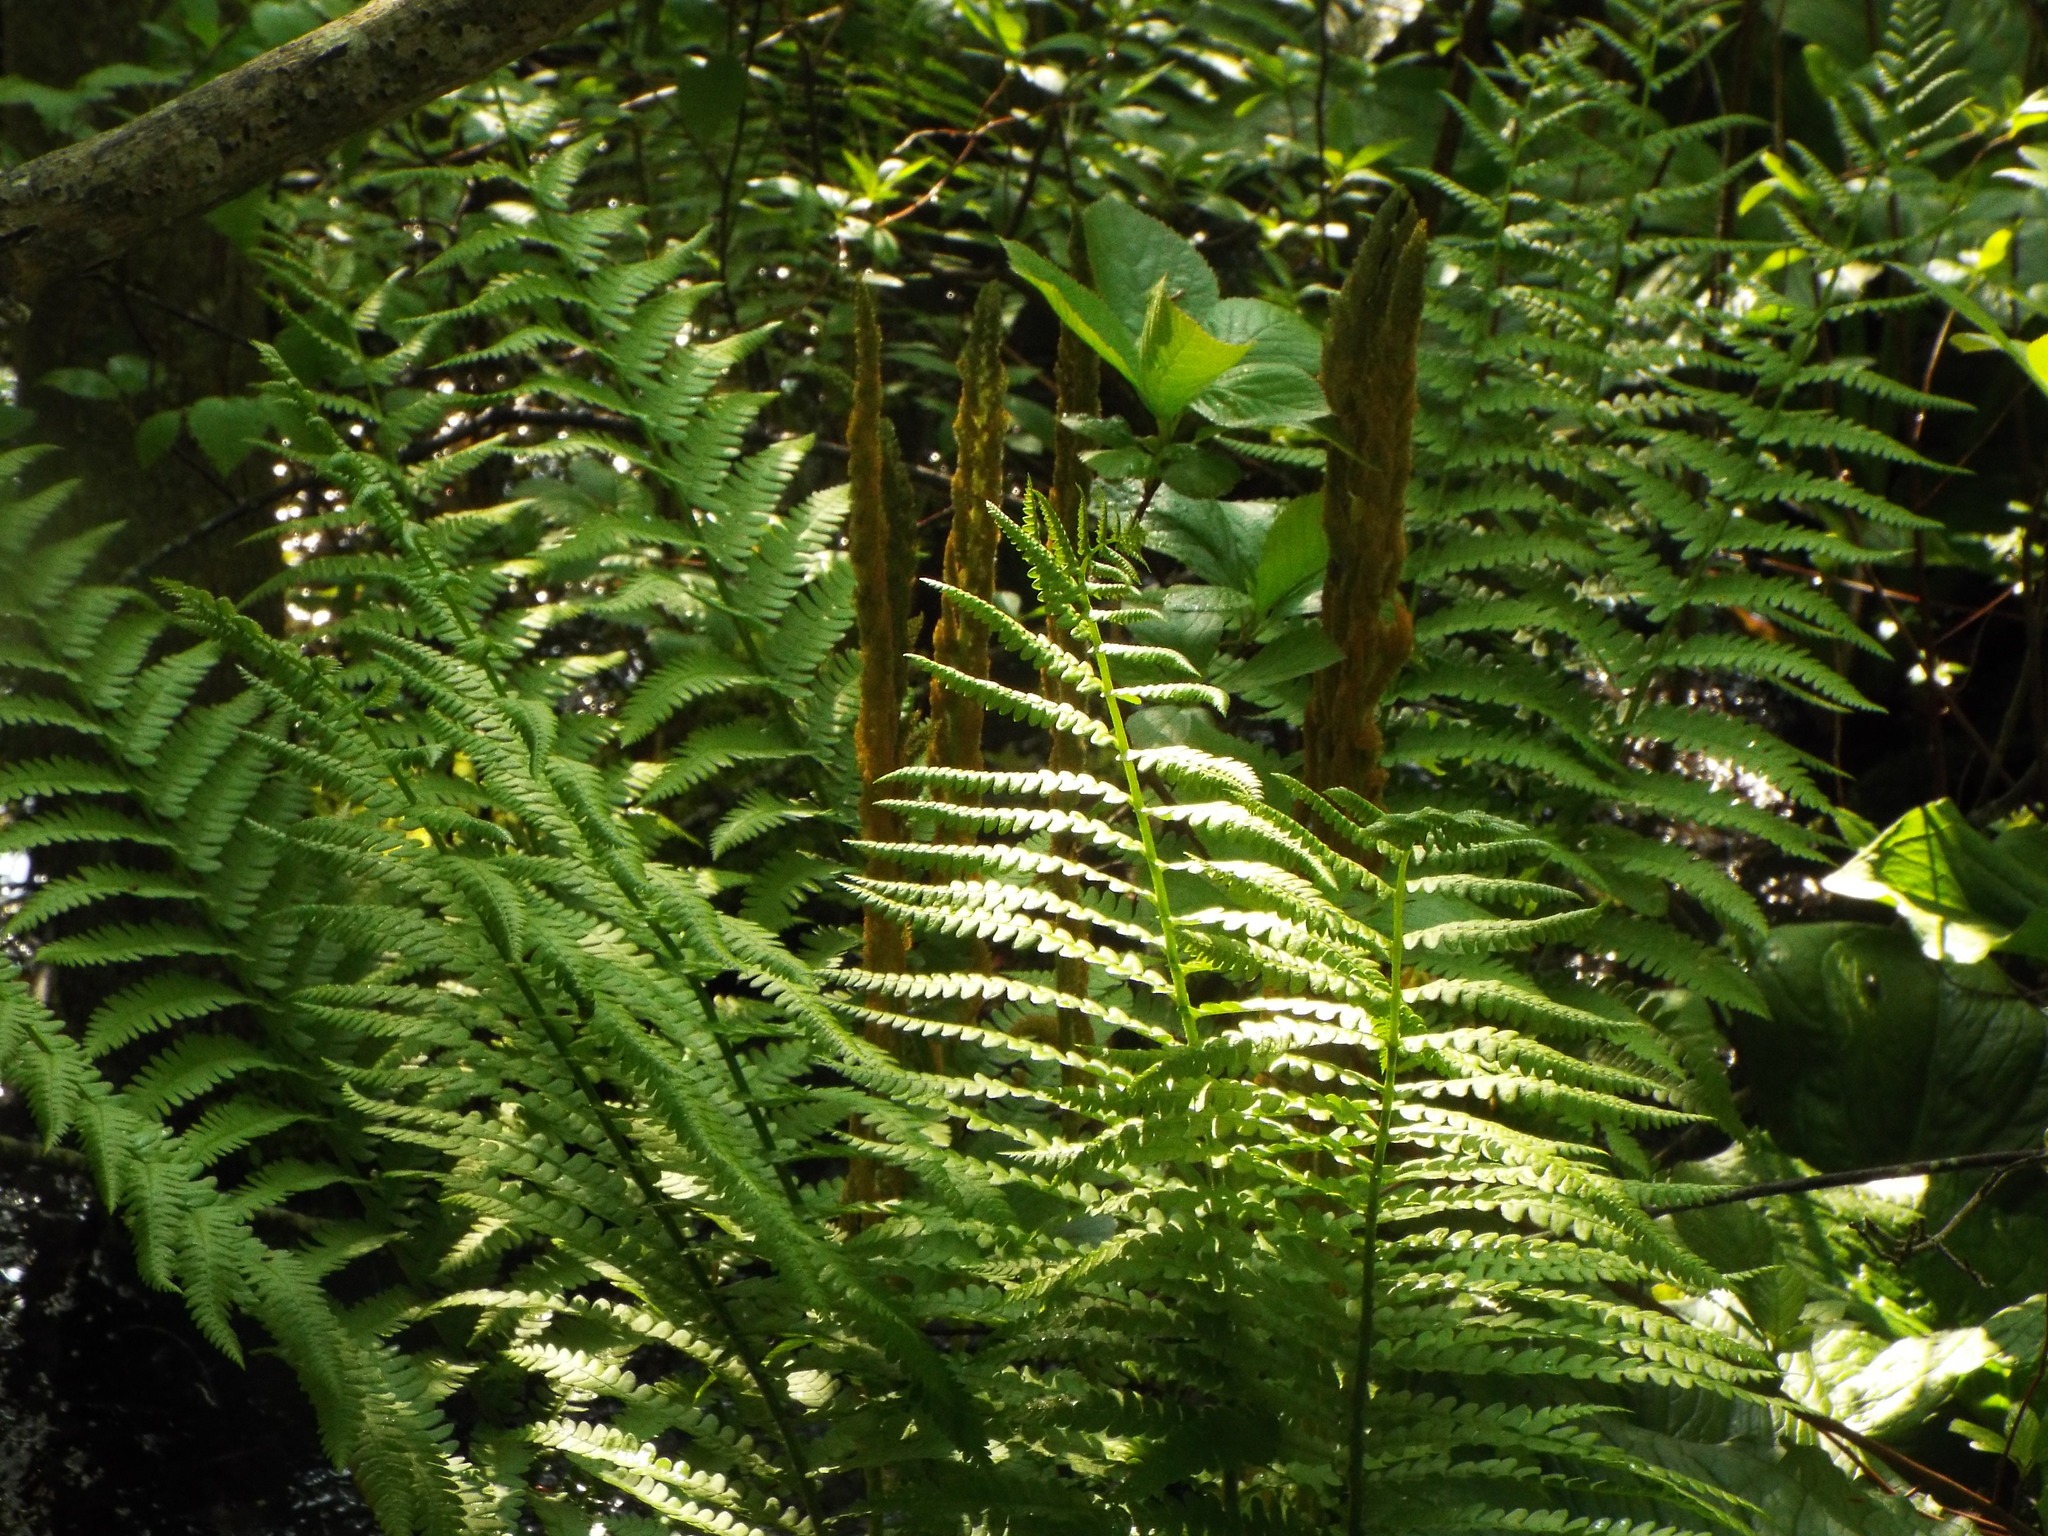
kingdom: Plantae
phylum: Tracheophyta
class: Polypodiopsida
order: Osmundales
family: Osmundaceae
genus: Osmundastrum
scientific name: Osmundastrum cinnamomeum
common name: Cinnamon fern
